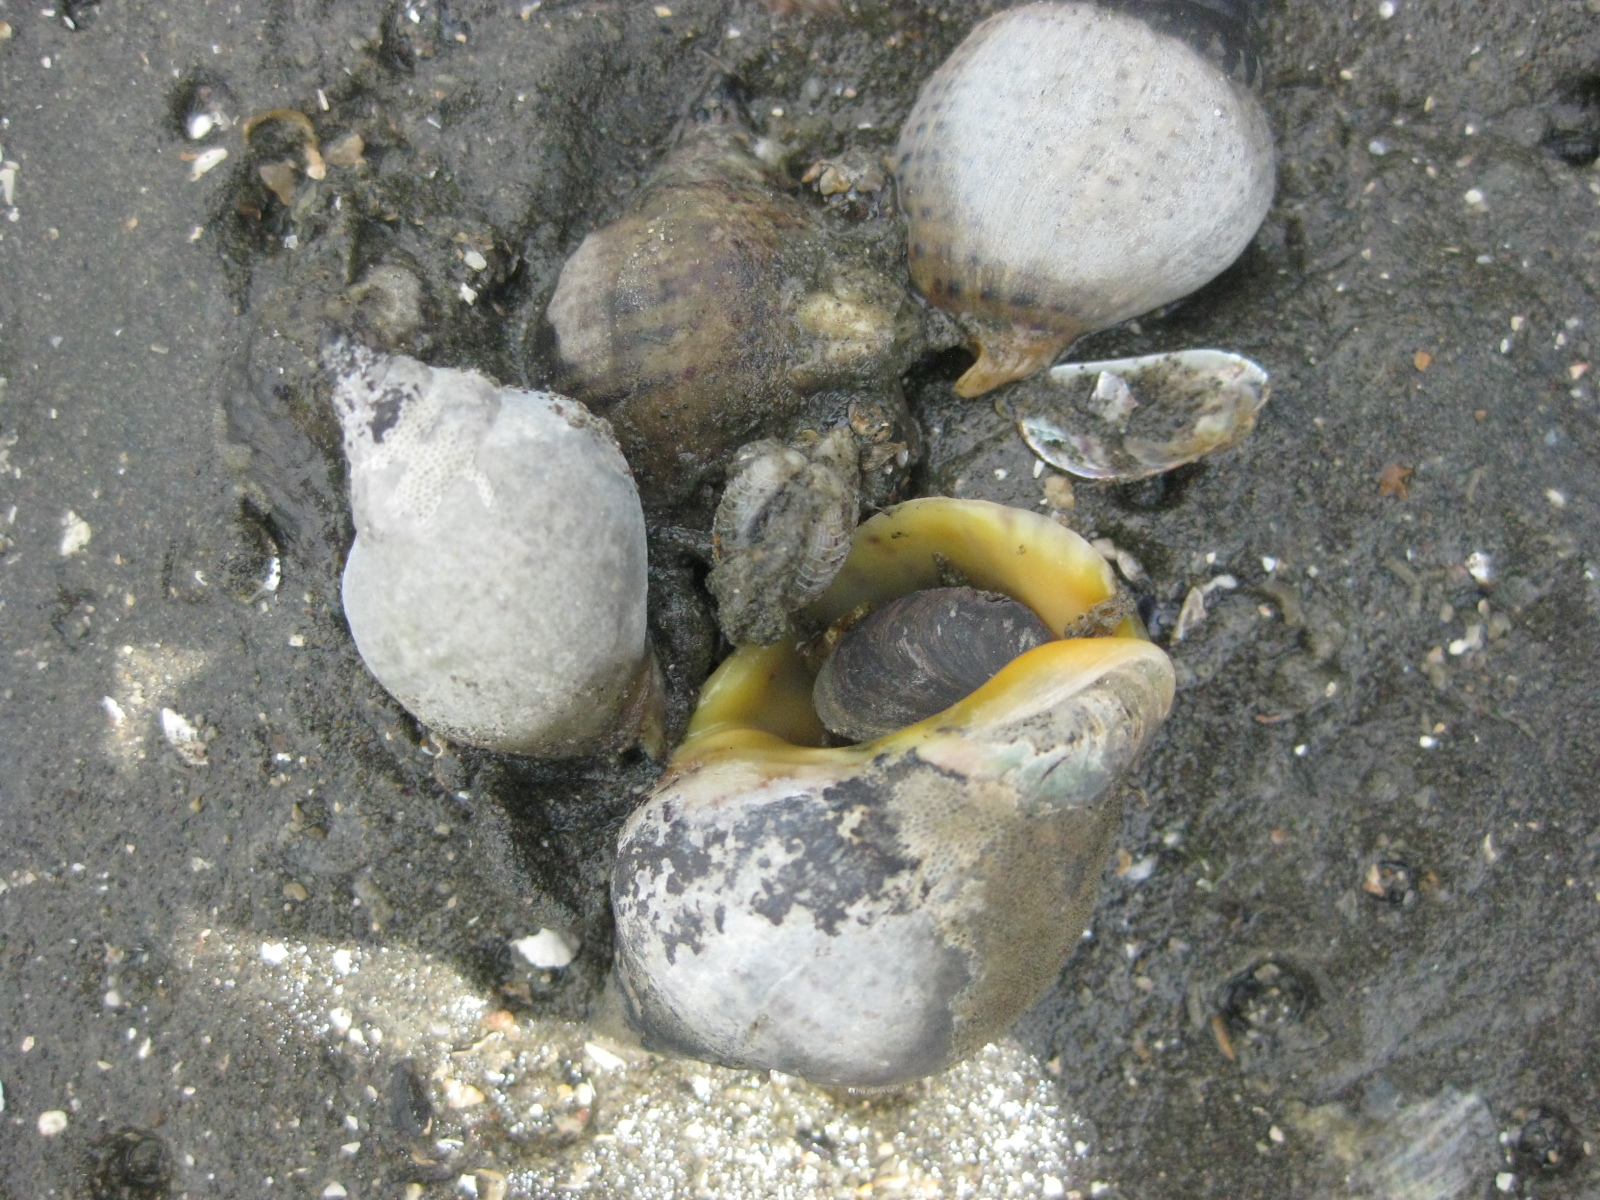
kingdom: Animalia
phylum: Mollusca
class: Gastropoda
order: Neogastropoda
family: Cominellidae
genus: Cominella
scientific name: Cominella adspersa
